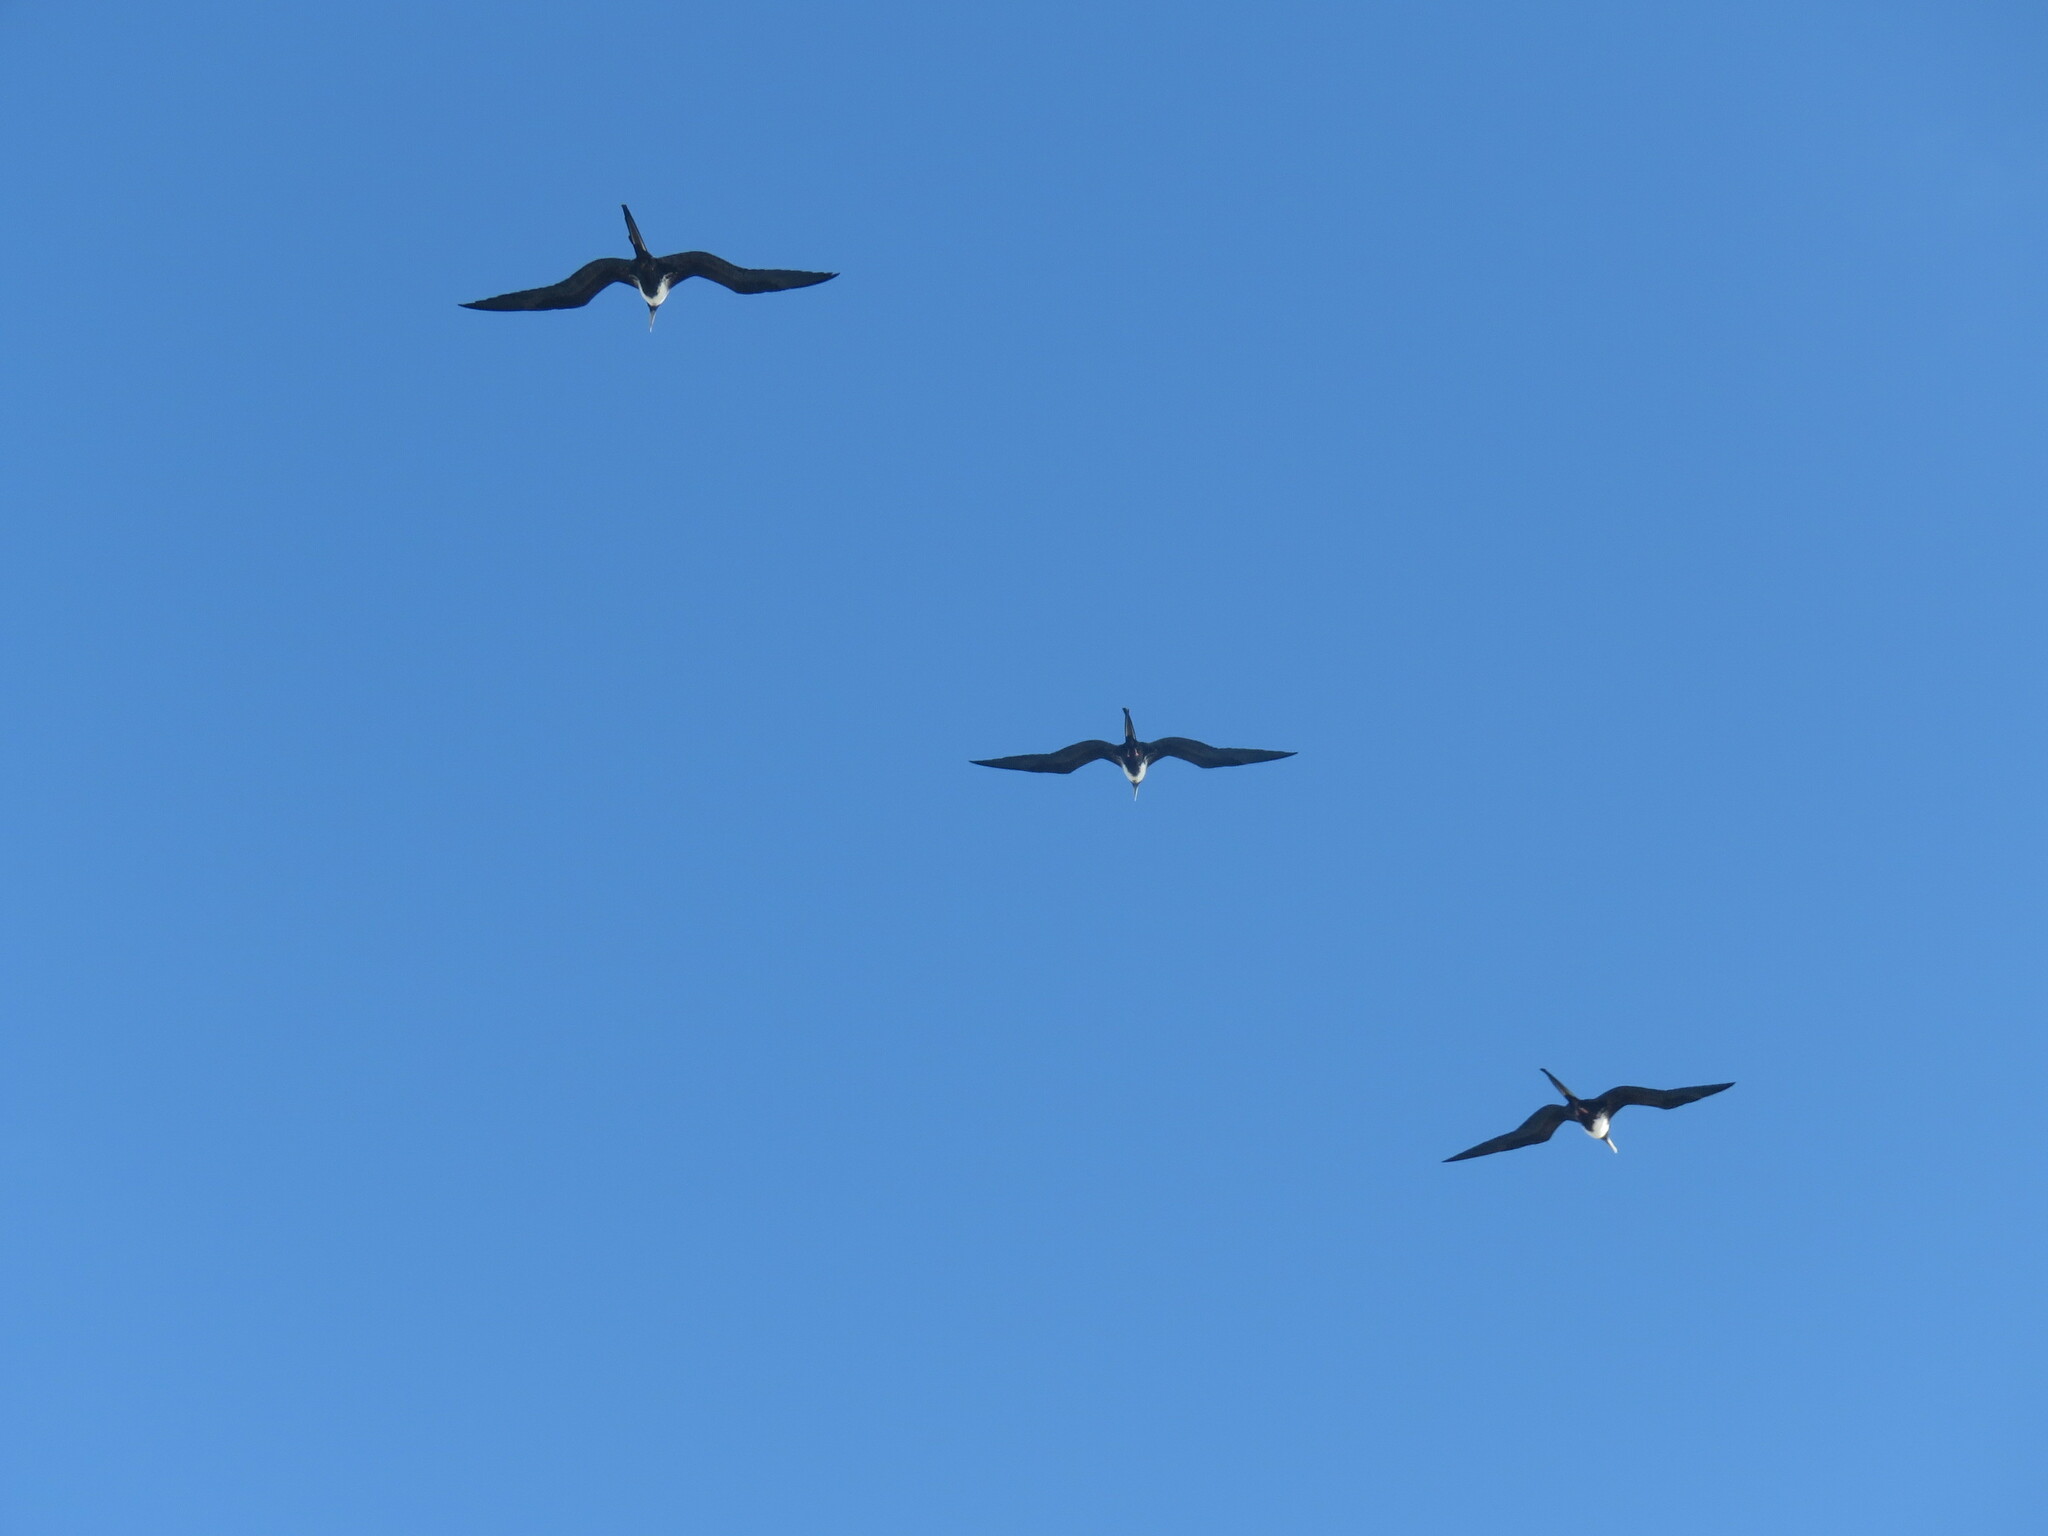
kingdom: Animalia
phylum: Chordata
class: Aves
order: Suliformes
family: Fregatidae
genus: Fregata
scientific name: Fregata magnificens
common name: Magnificent frigatebird
